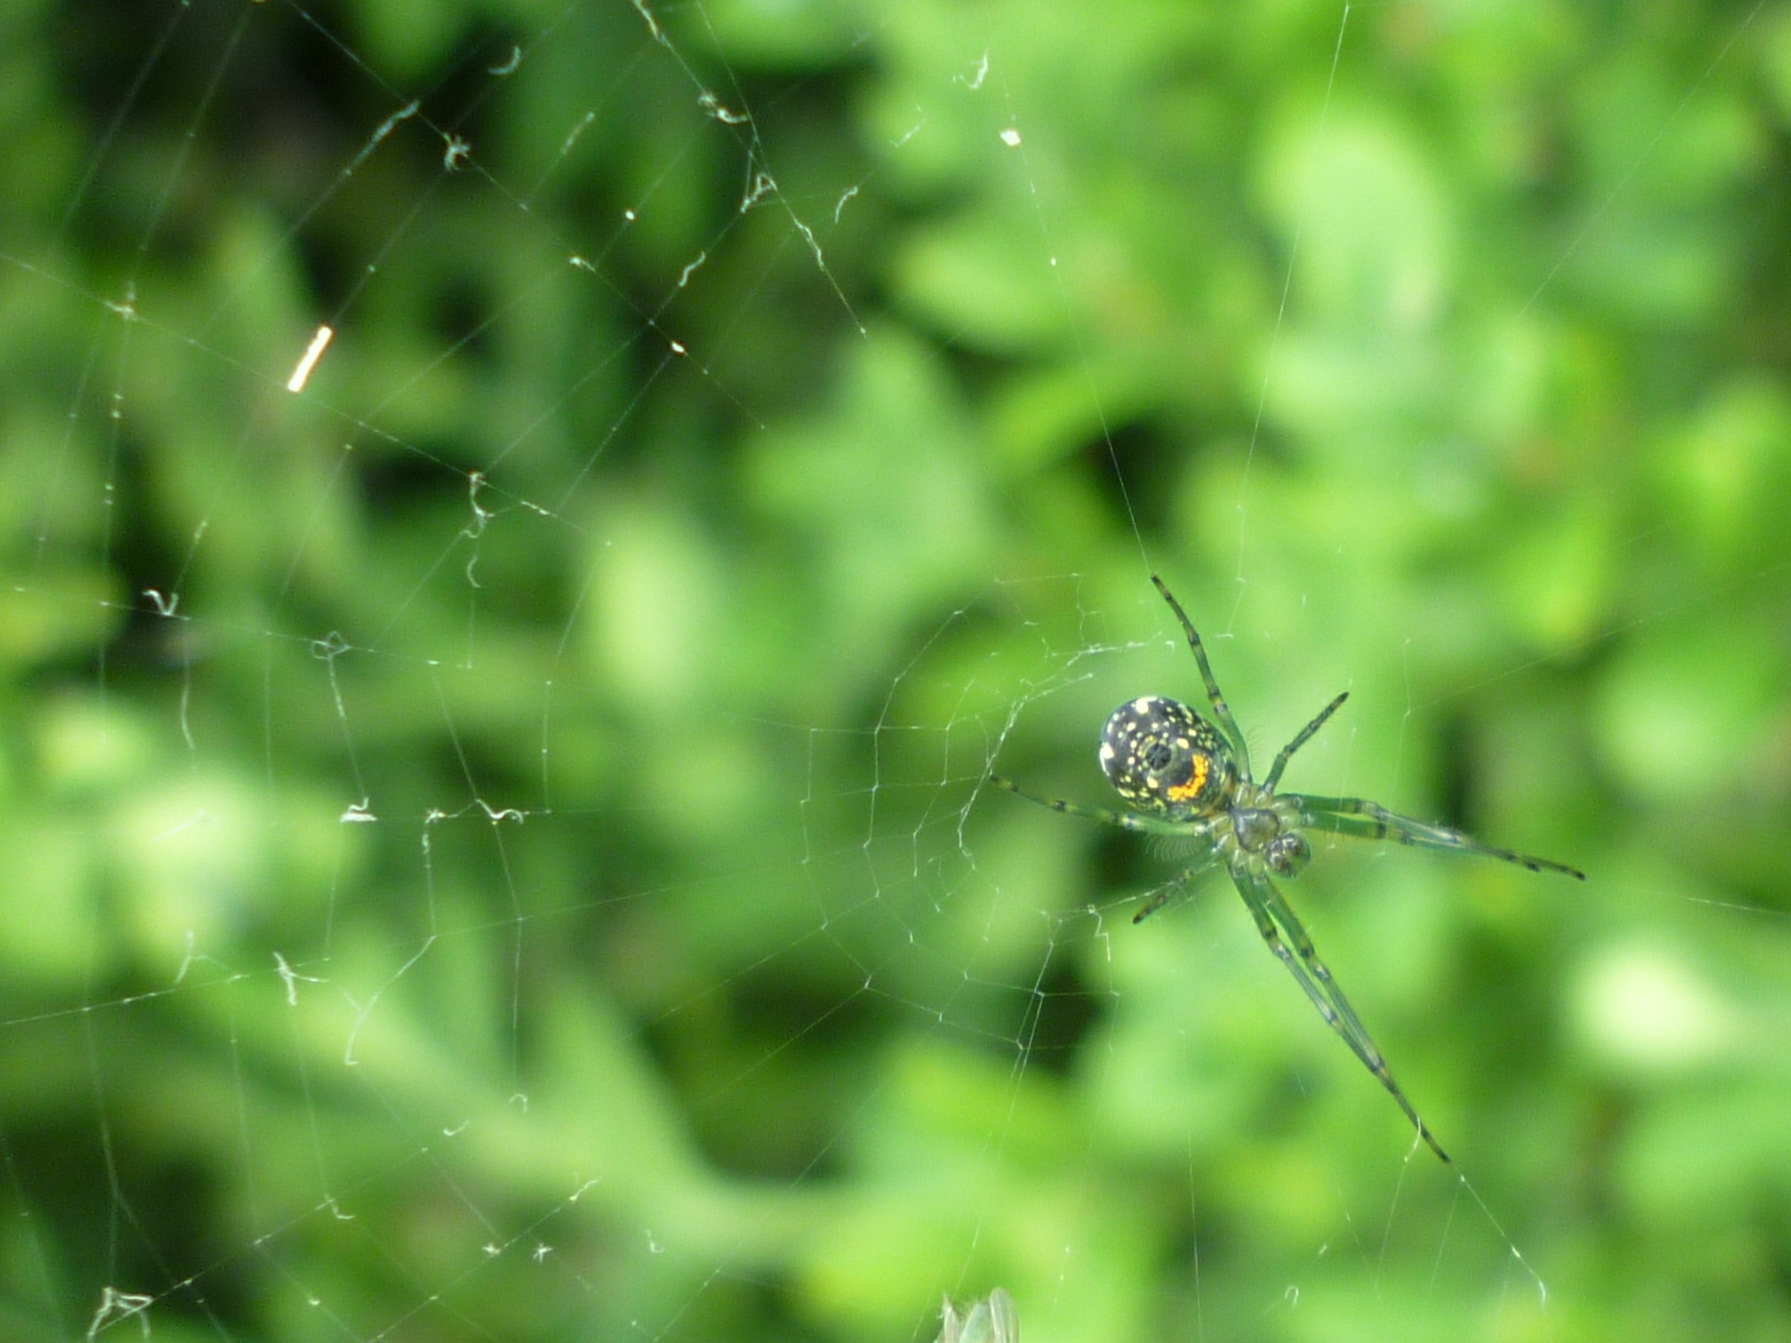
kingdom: Animalia
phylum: Arthropoda
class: Arachnida
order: Araneae
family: Tetragnathidae
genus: Leucauge
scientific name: Leucauge venusta
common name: Longjawed orb weavers
